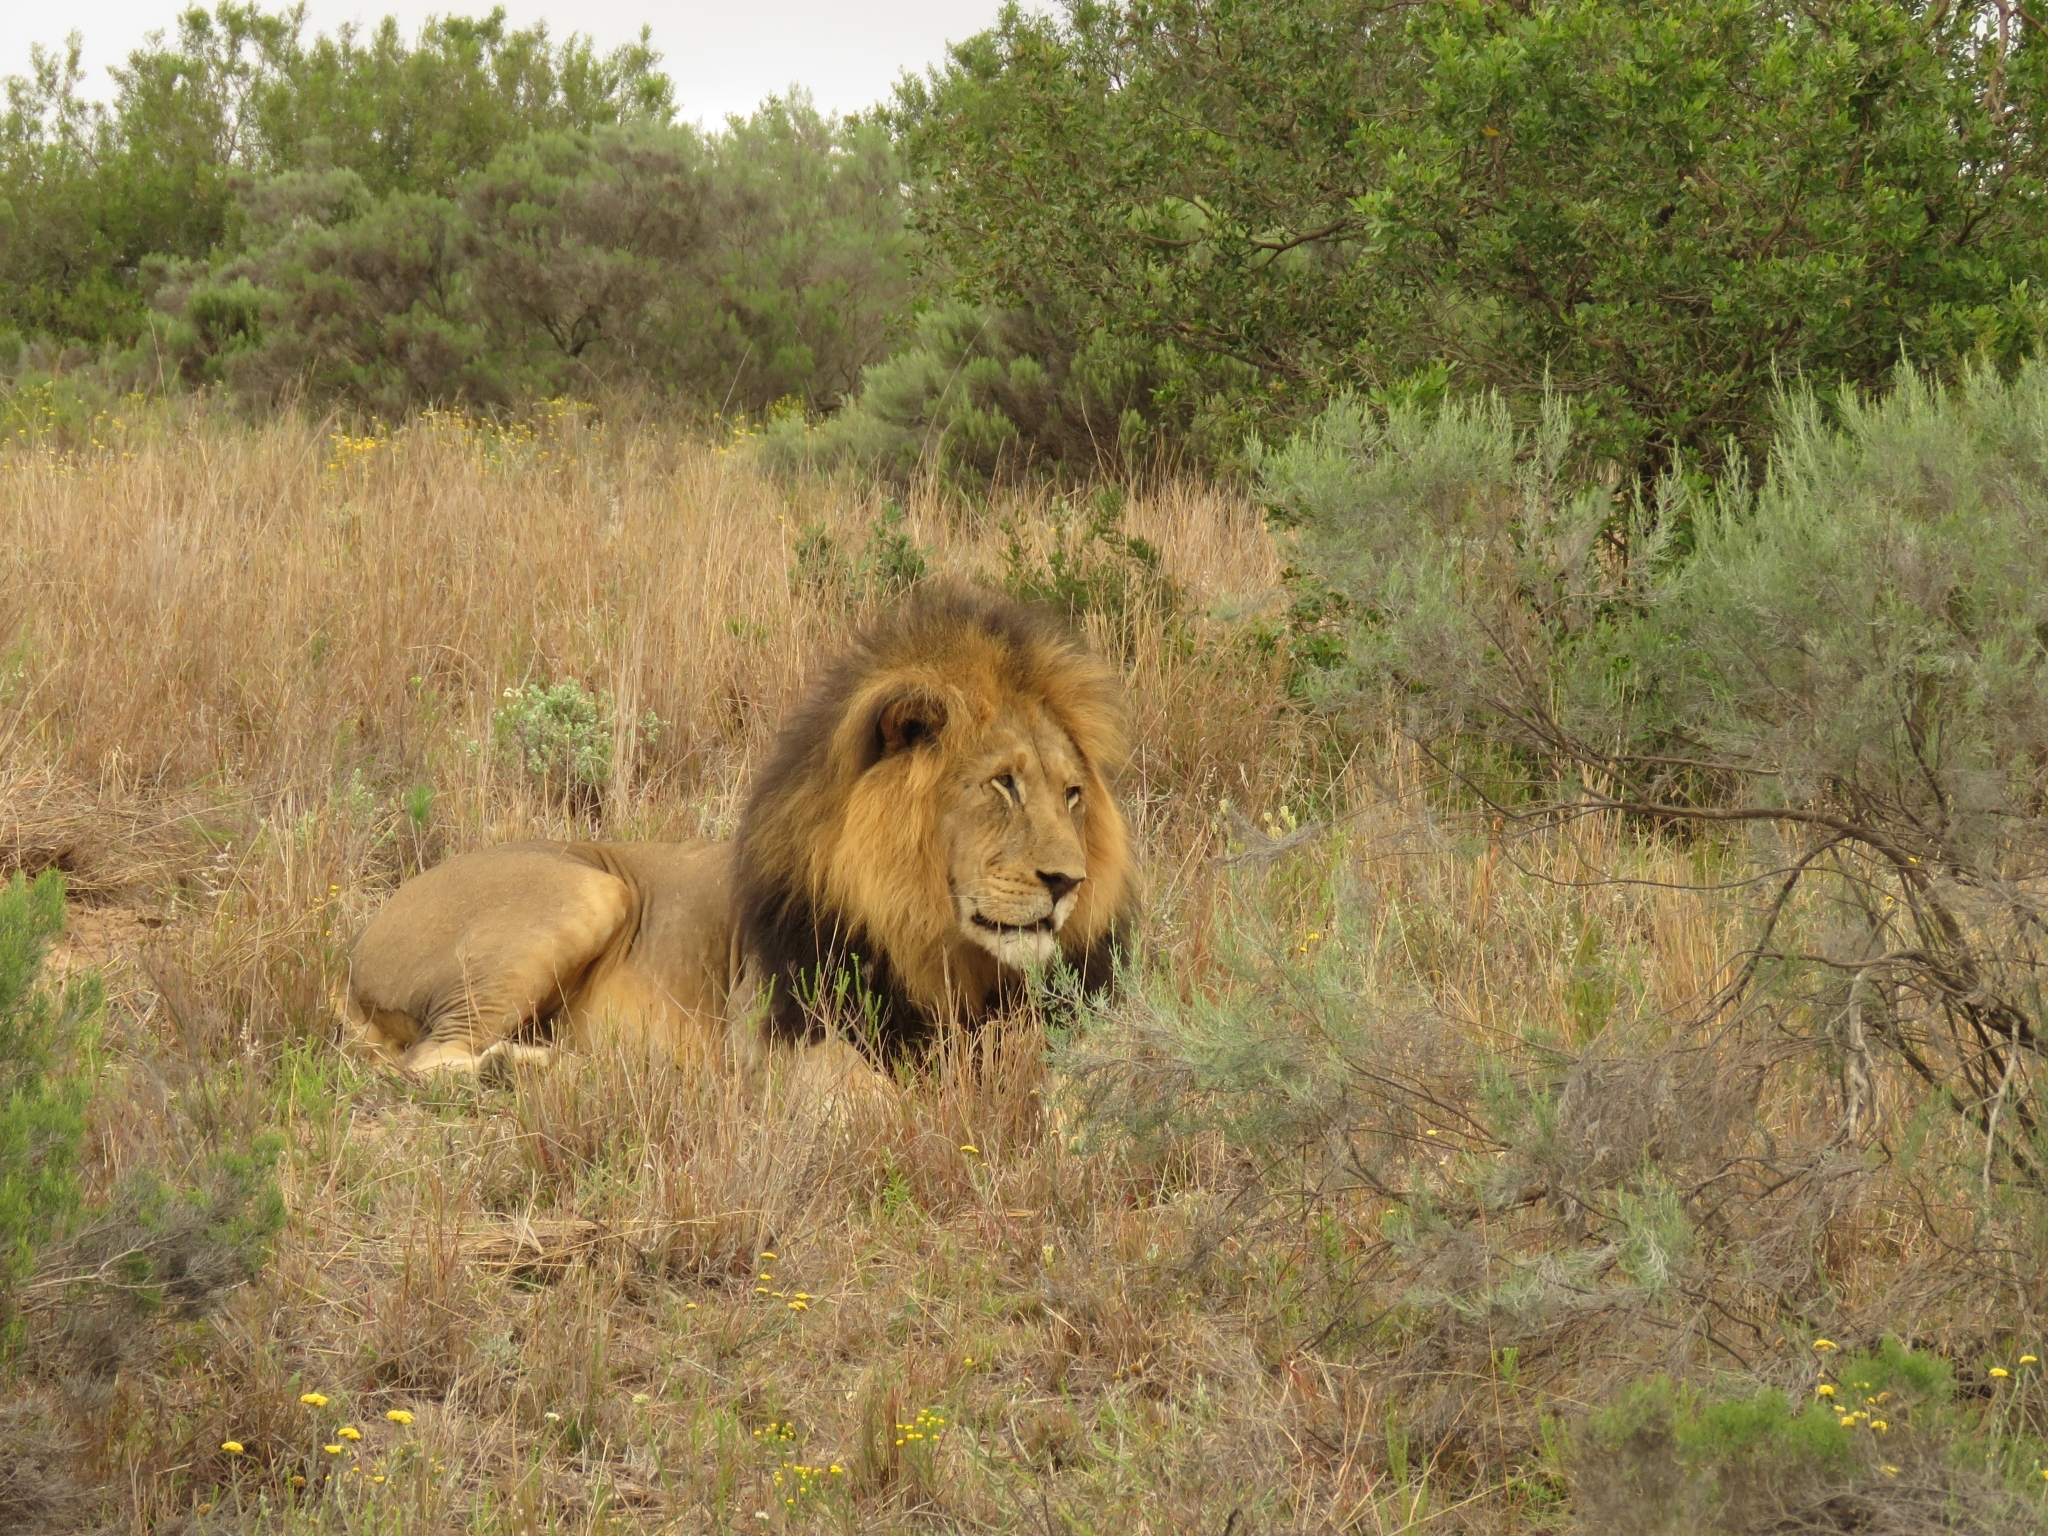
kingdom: Animalia
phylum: Chordata
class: Mammalia
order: Carnivora
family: Felidae
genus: Panthera
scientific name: Panthera leo
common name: Lion
